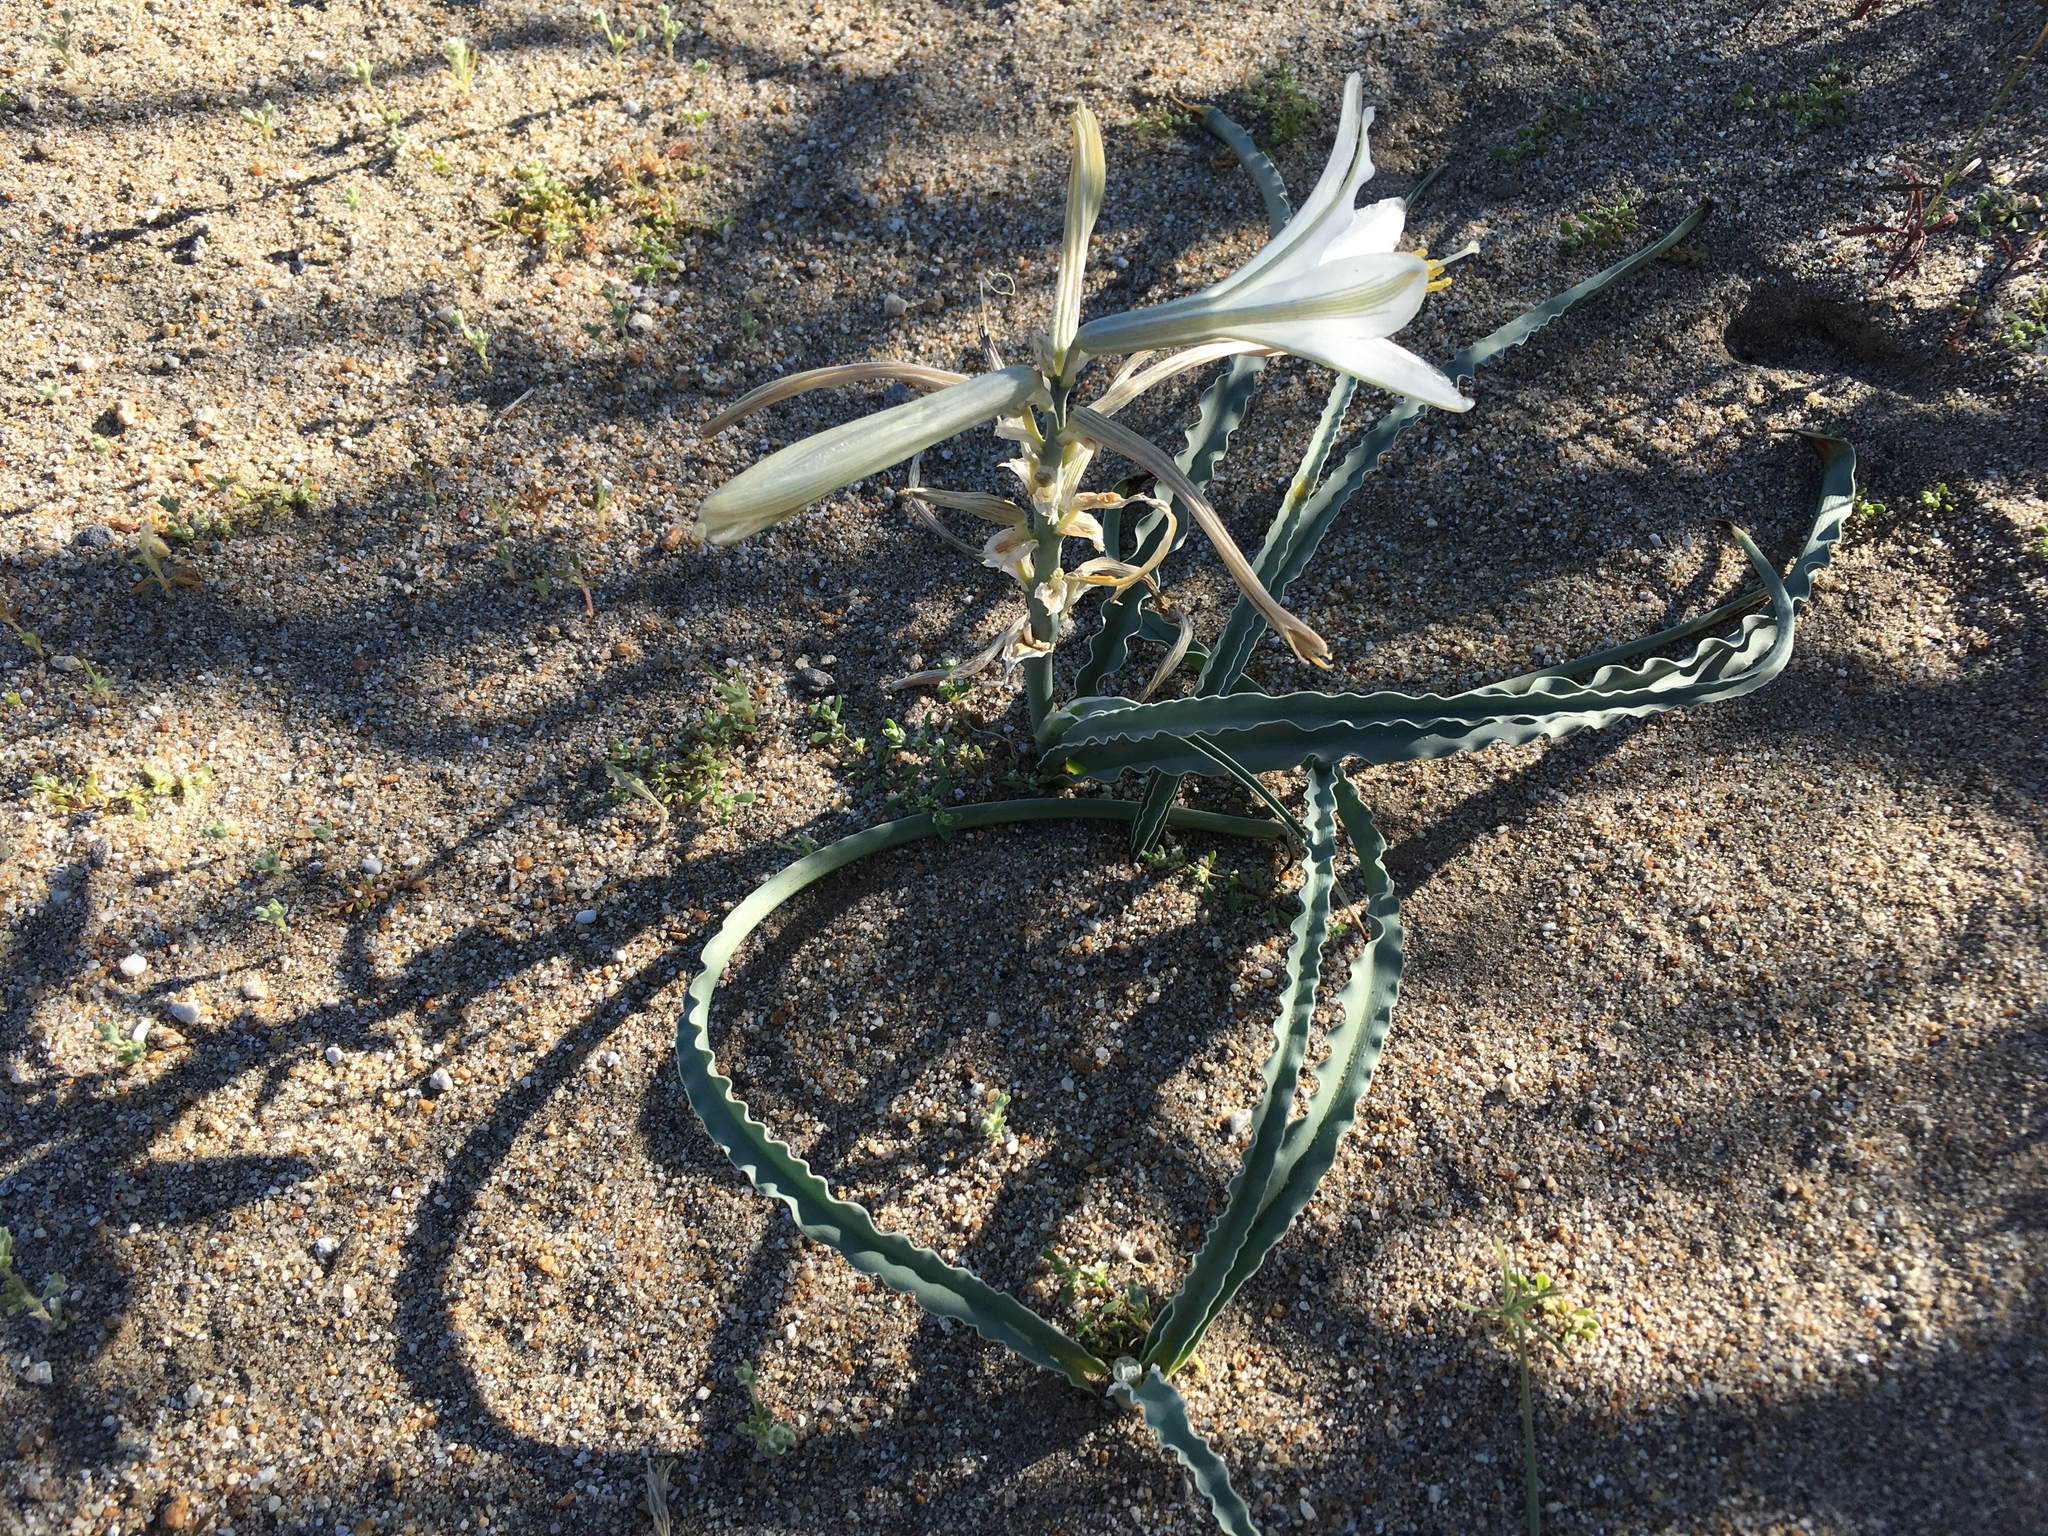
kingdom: Plantae
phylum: Tracheophyta
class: Liliopsida
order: Asparagales
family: Asparagaceae
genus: Hesperocallis
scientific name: Hesperocallis undulata
